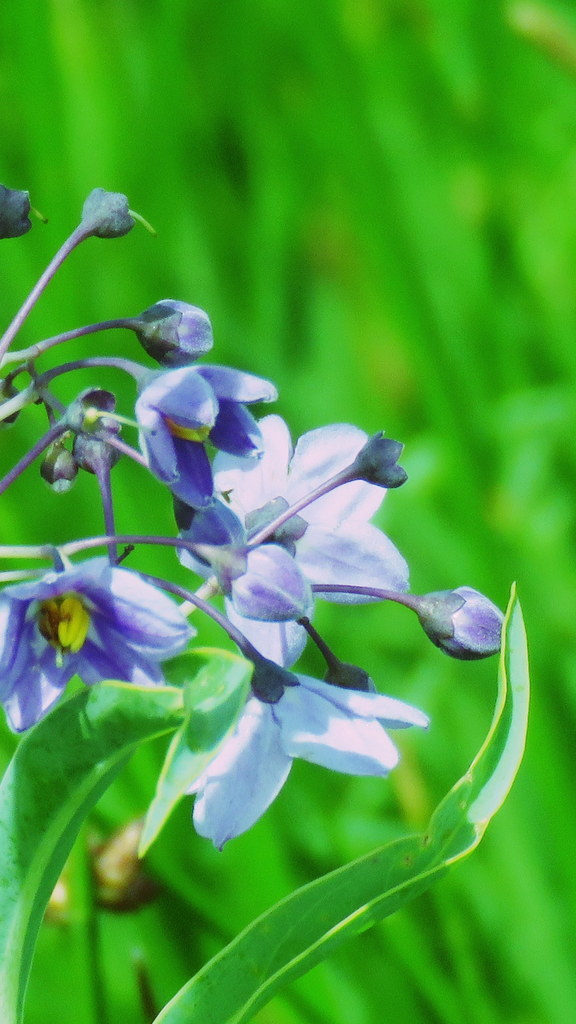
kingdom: Plantae
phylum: Tracheophyta
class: Magnoliopsida
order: Solanales
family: Solanaceae
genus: Solanum
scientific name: Solanum glaucophyllum
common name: Waxyleaf nightshade
